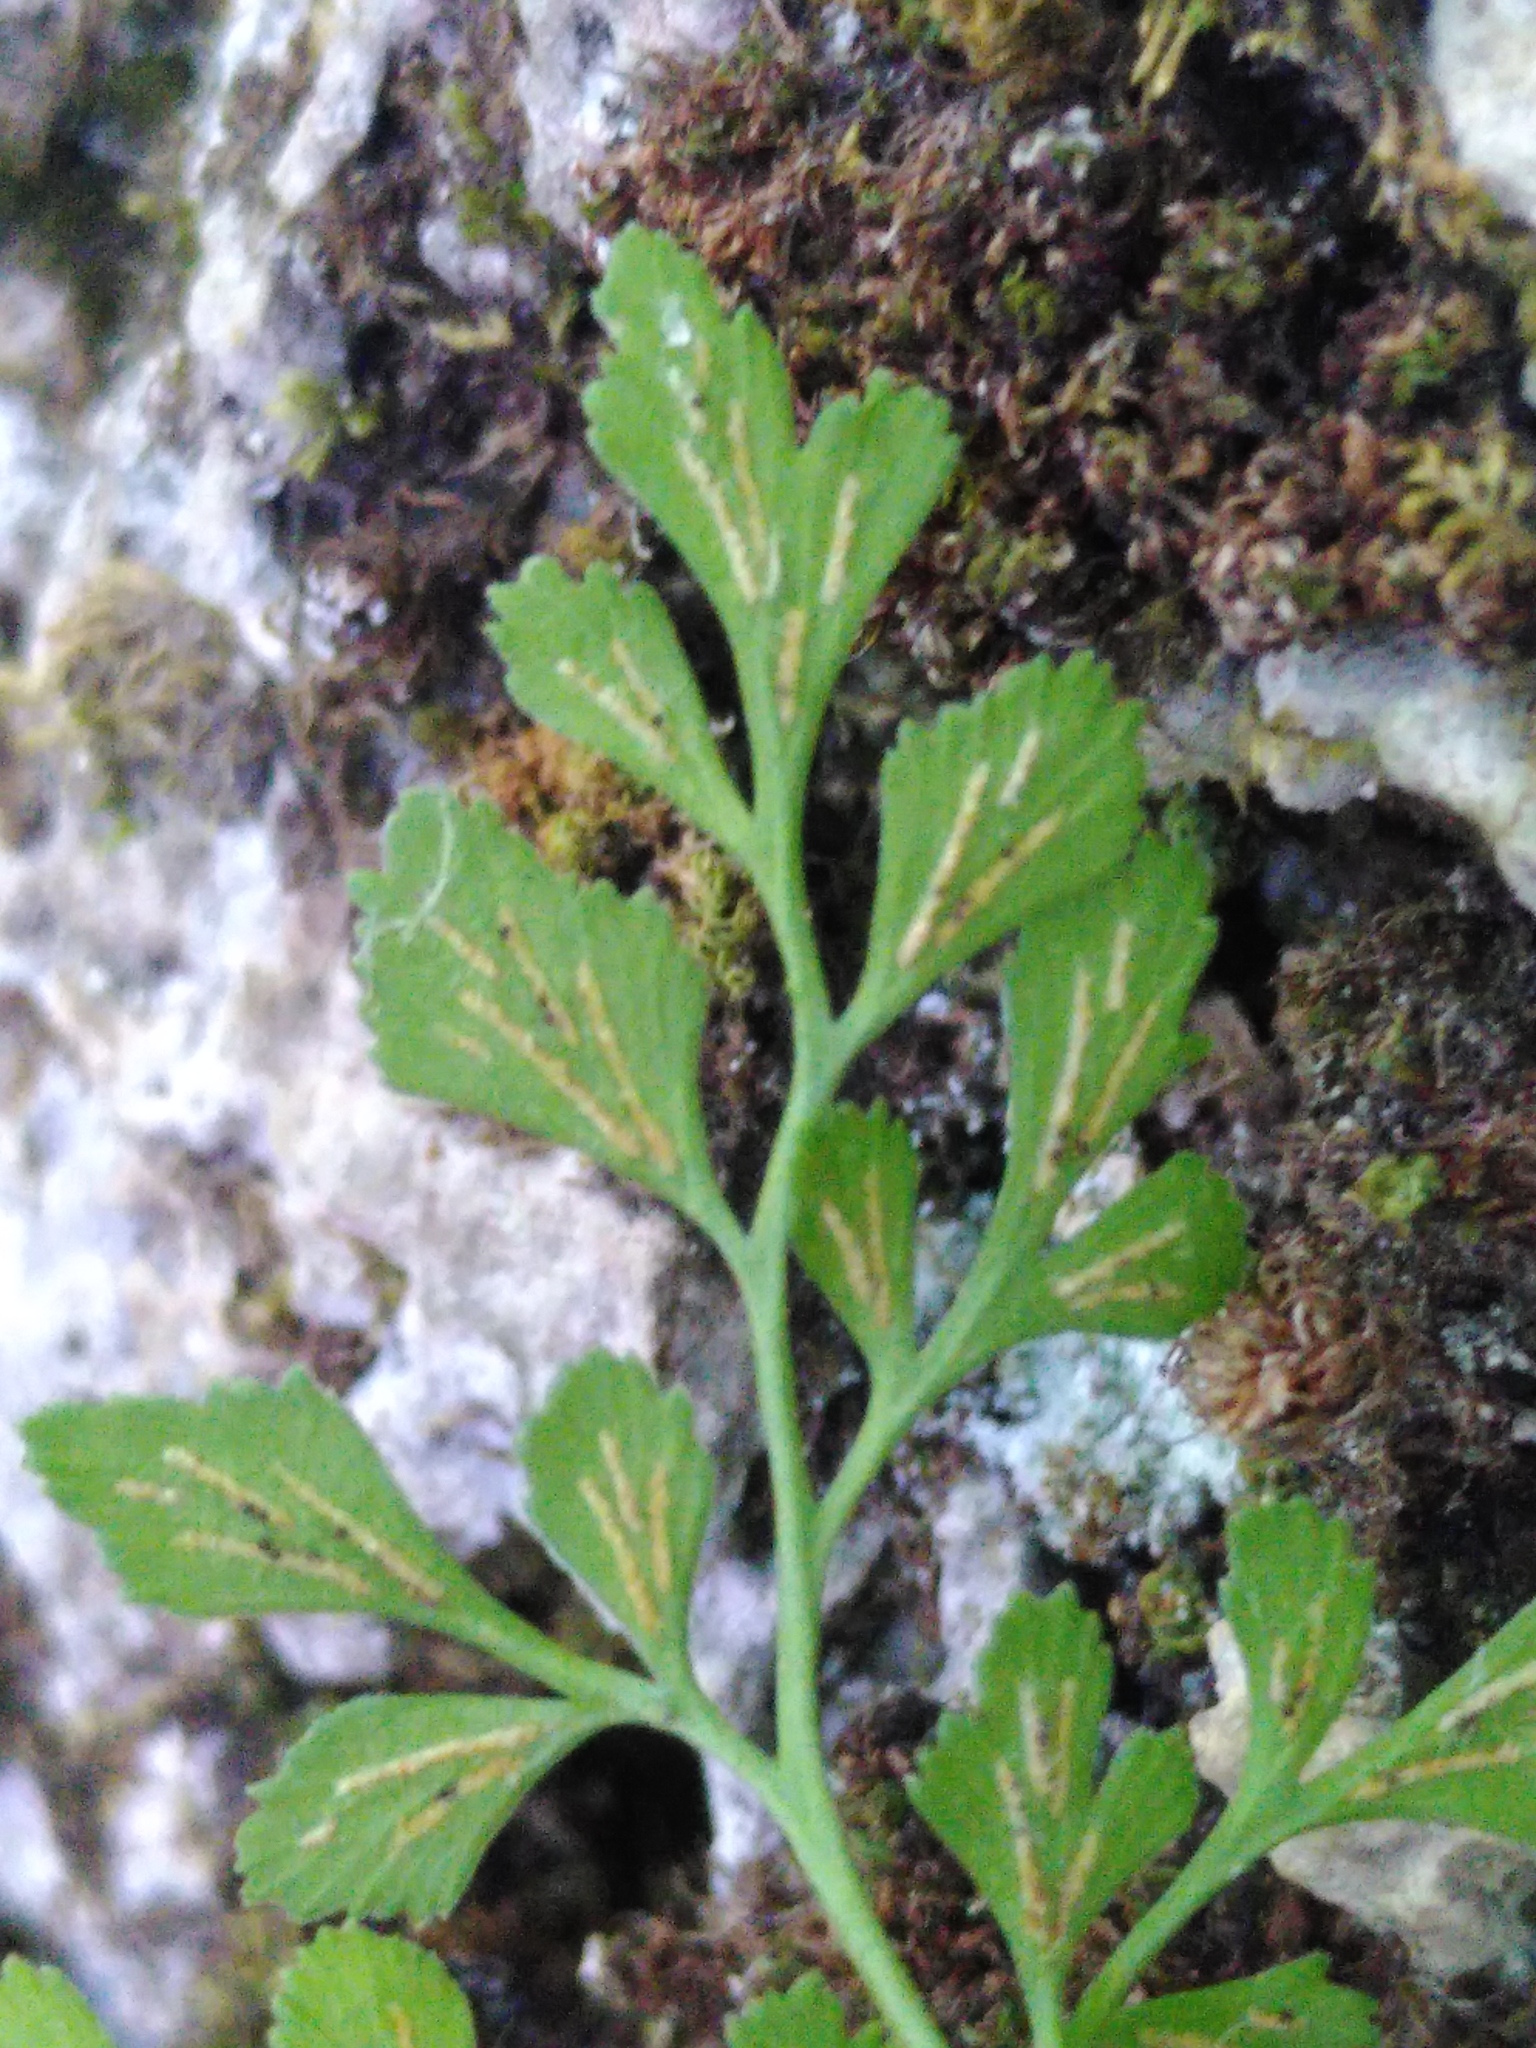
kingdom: Plantae
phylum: Tracheophyta
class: Polypodiopsida
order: Polypodiales
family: Aspleniaceae
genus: Asplenium
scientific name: Asplenium ruta-muraria
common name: Wall-rue
